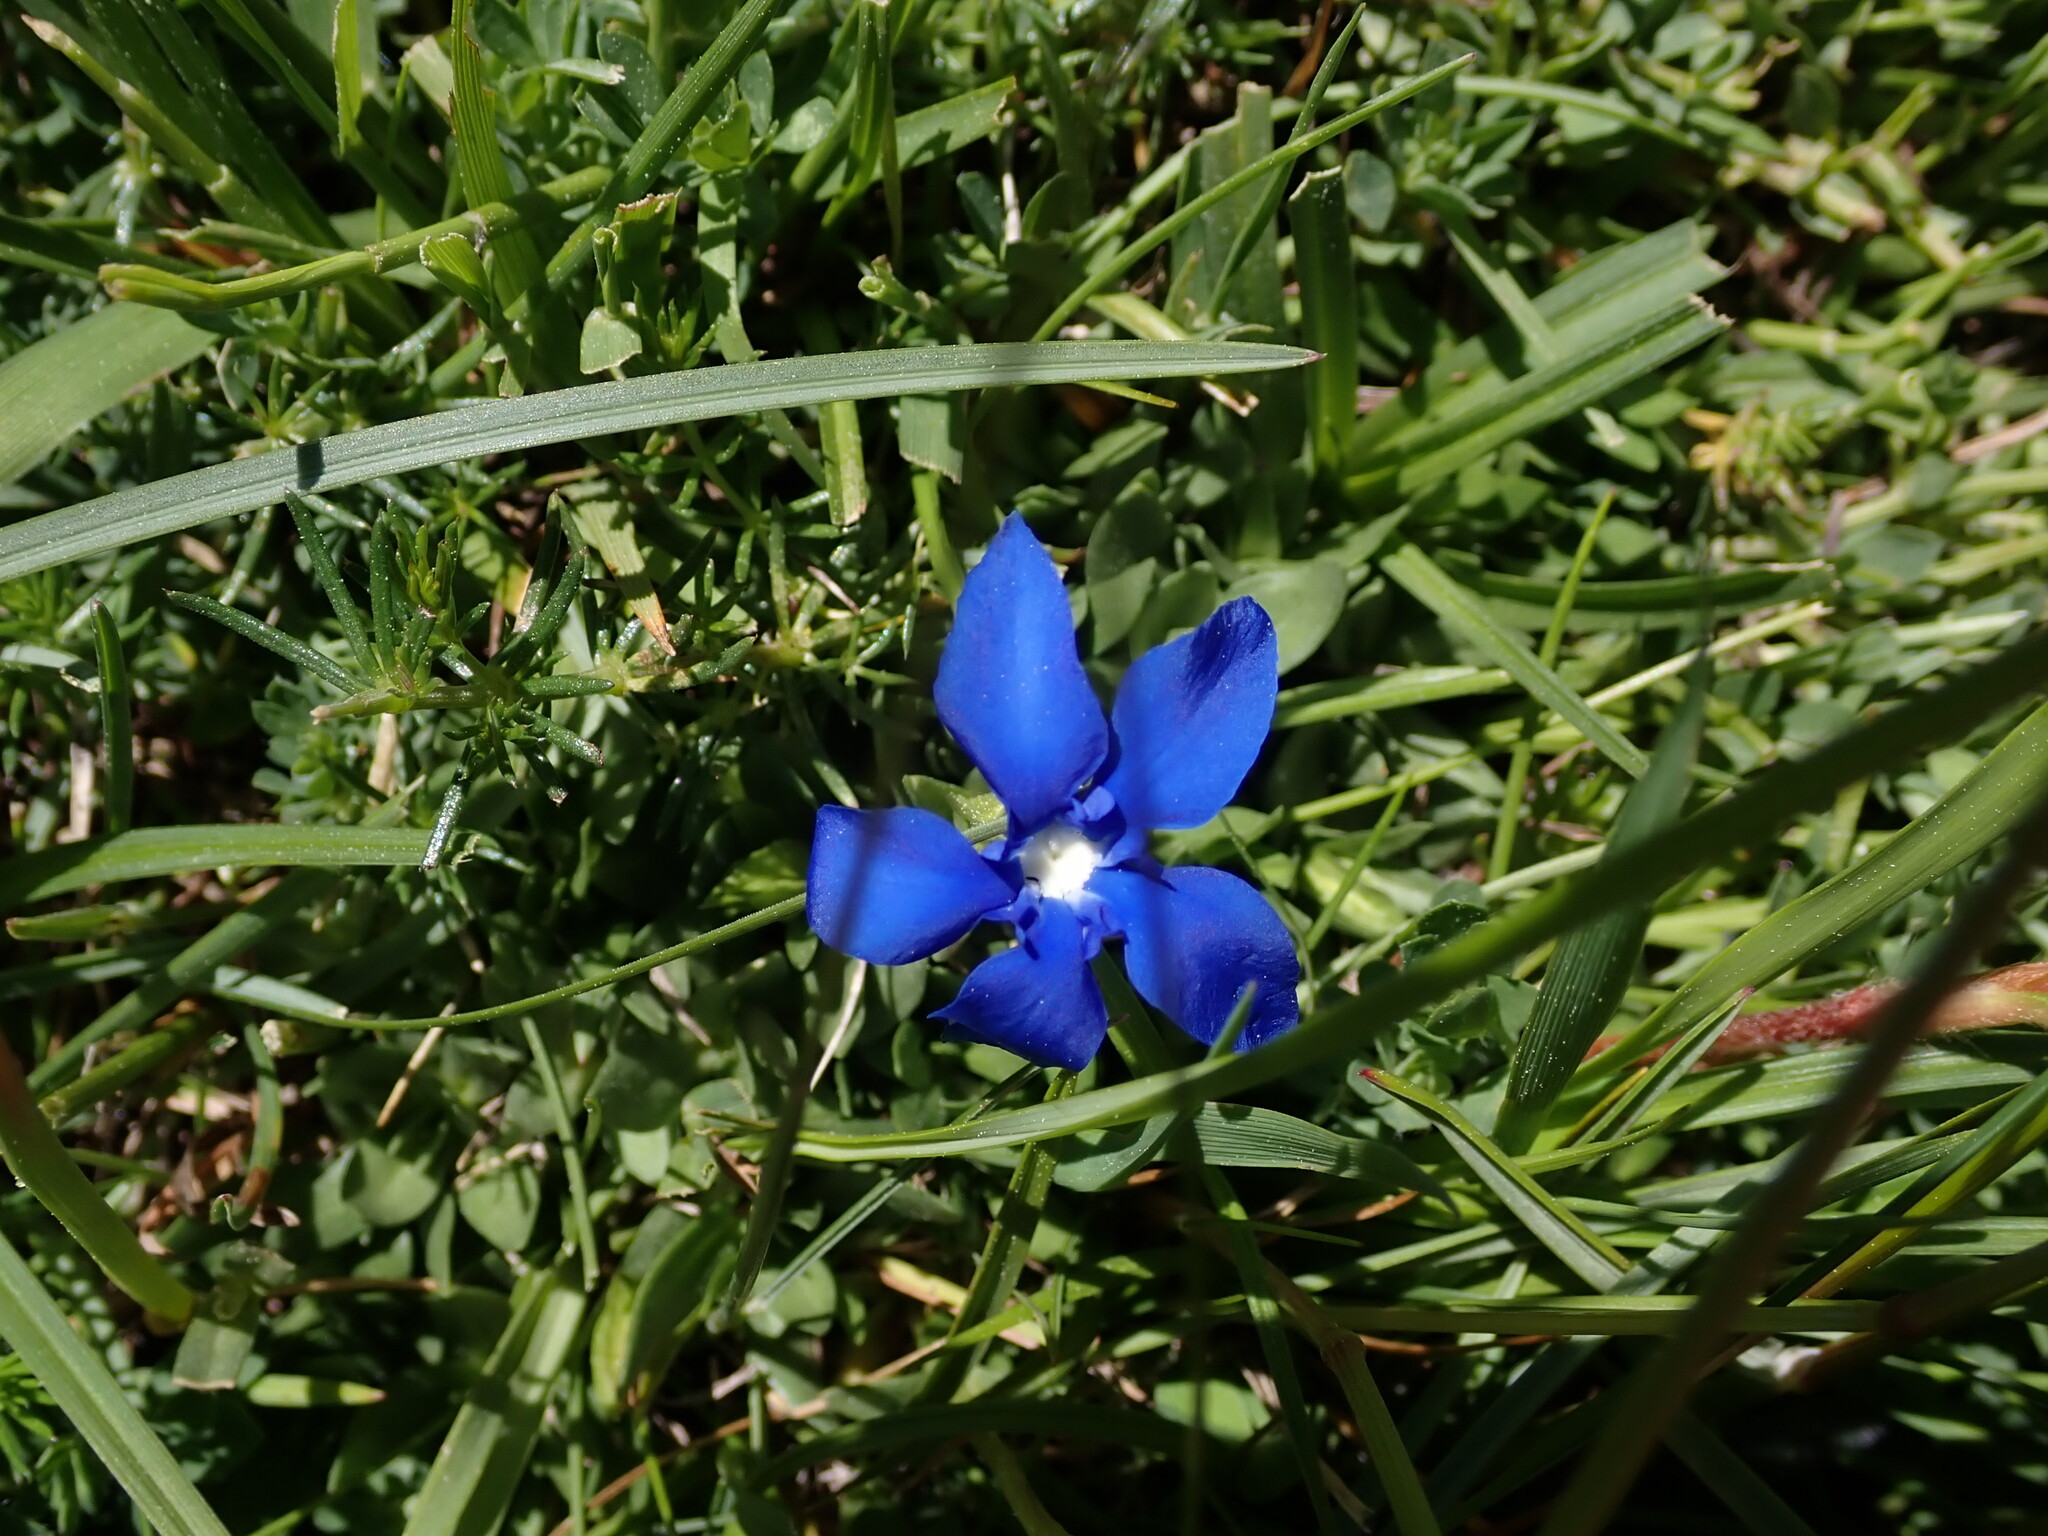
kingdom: Plantae
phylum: Tracheophyta
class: Magnoliopsida
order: Gentianales
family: Gentianaceae
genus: Gentiana
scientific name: Gentiana verna
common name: Spring gentian
